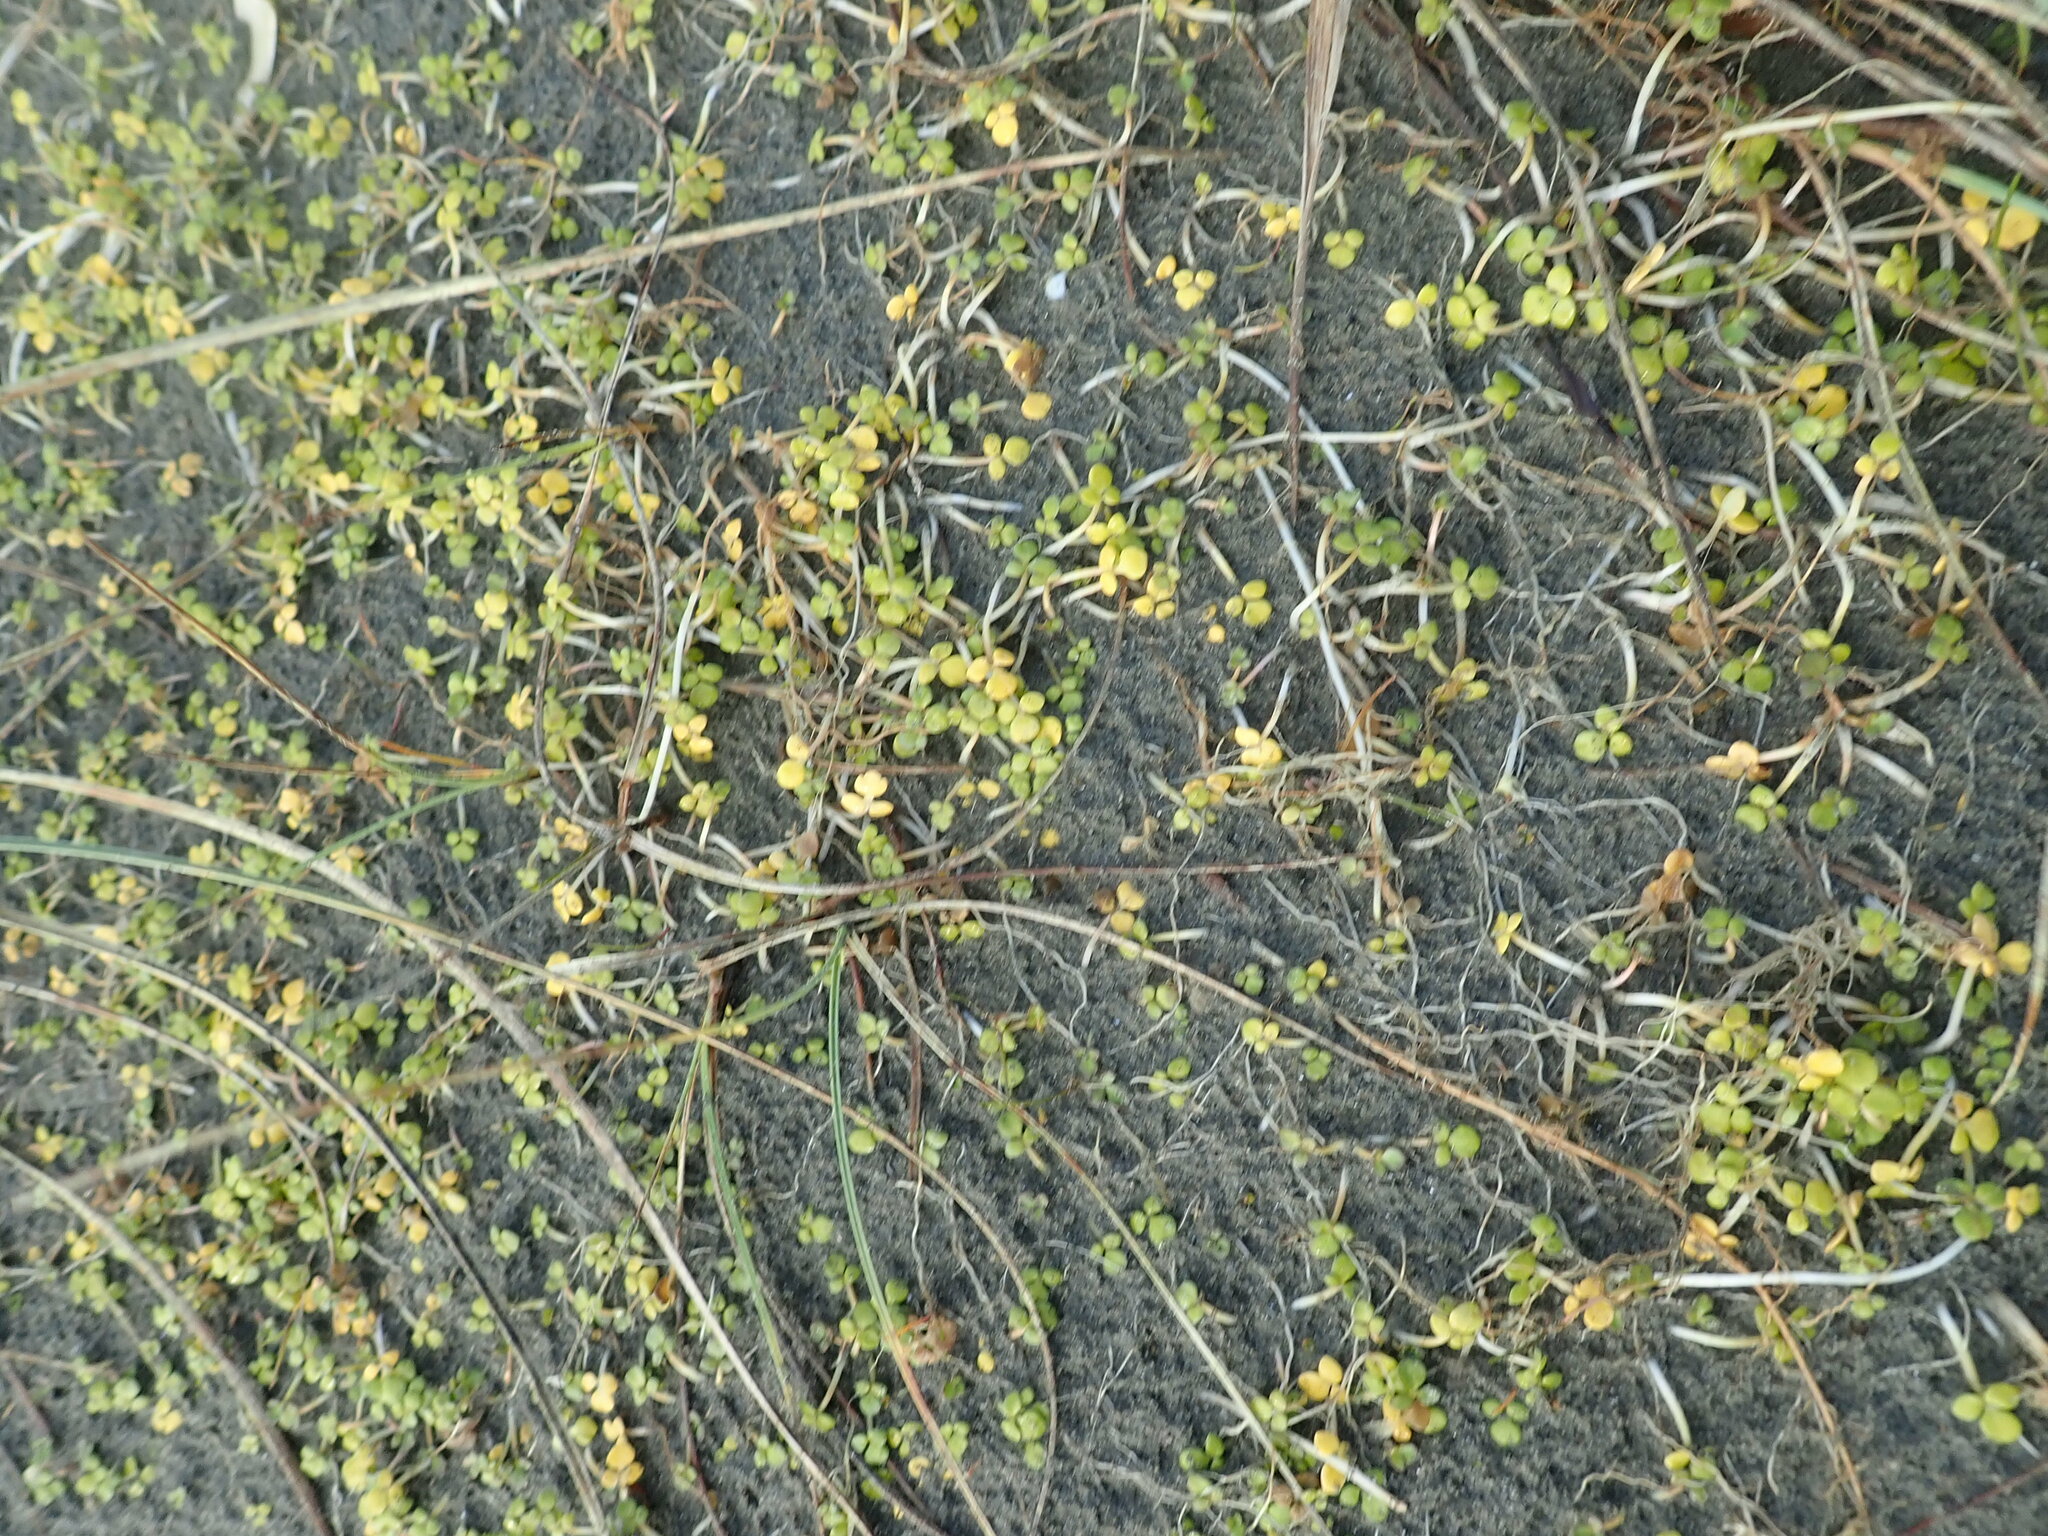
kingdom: Plantae
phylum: Tracheophyta
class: Magnoliopsida
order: Ranunculales
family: Ranunculaceae
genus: Ranunculus
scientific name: Ranunculus acaulis
